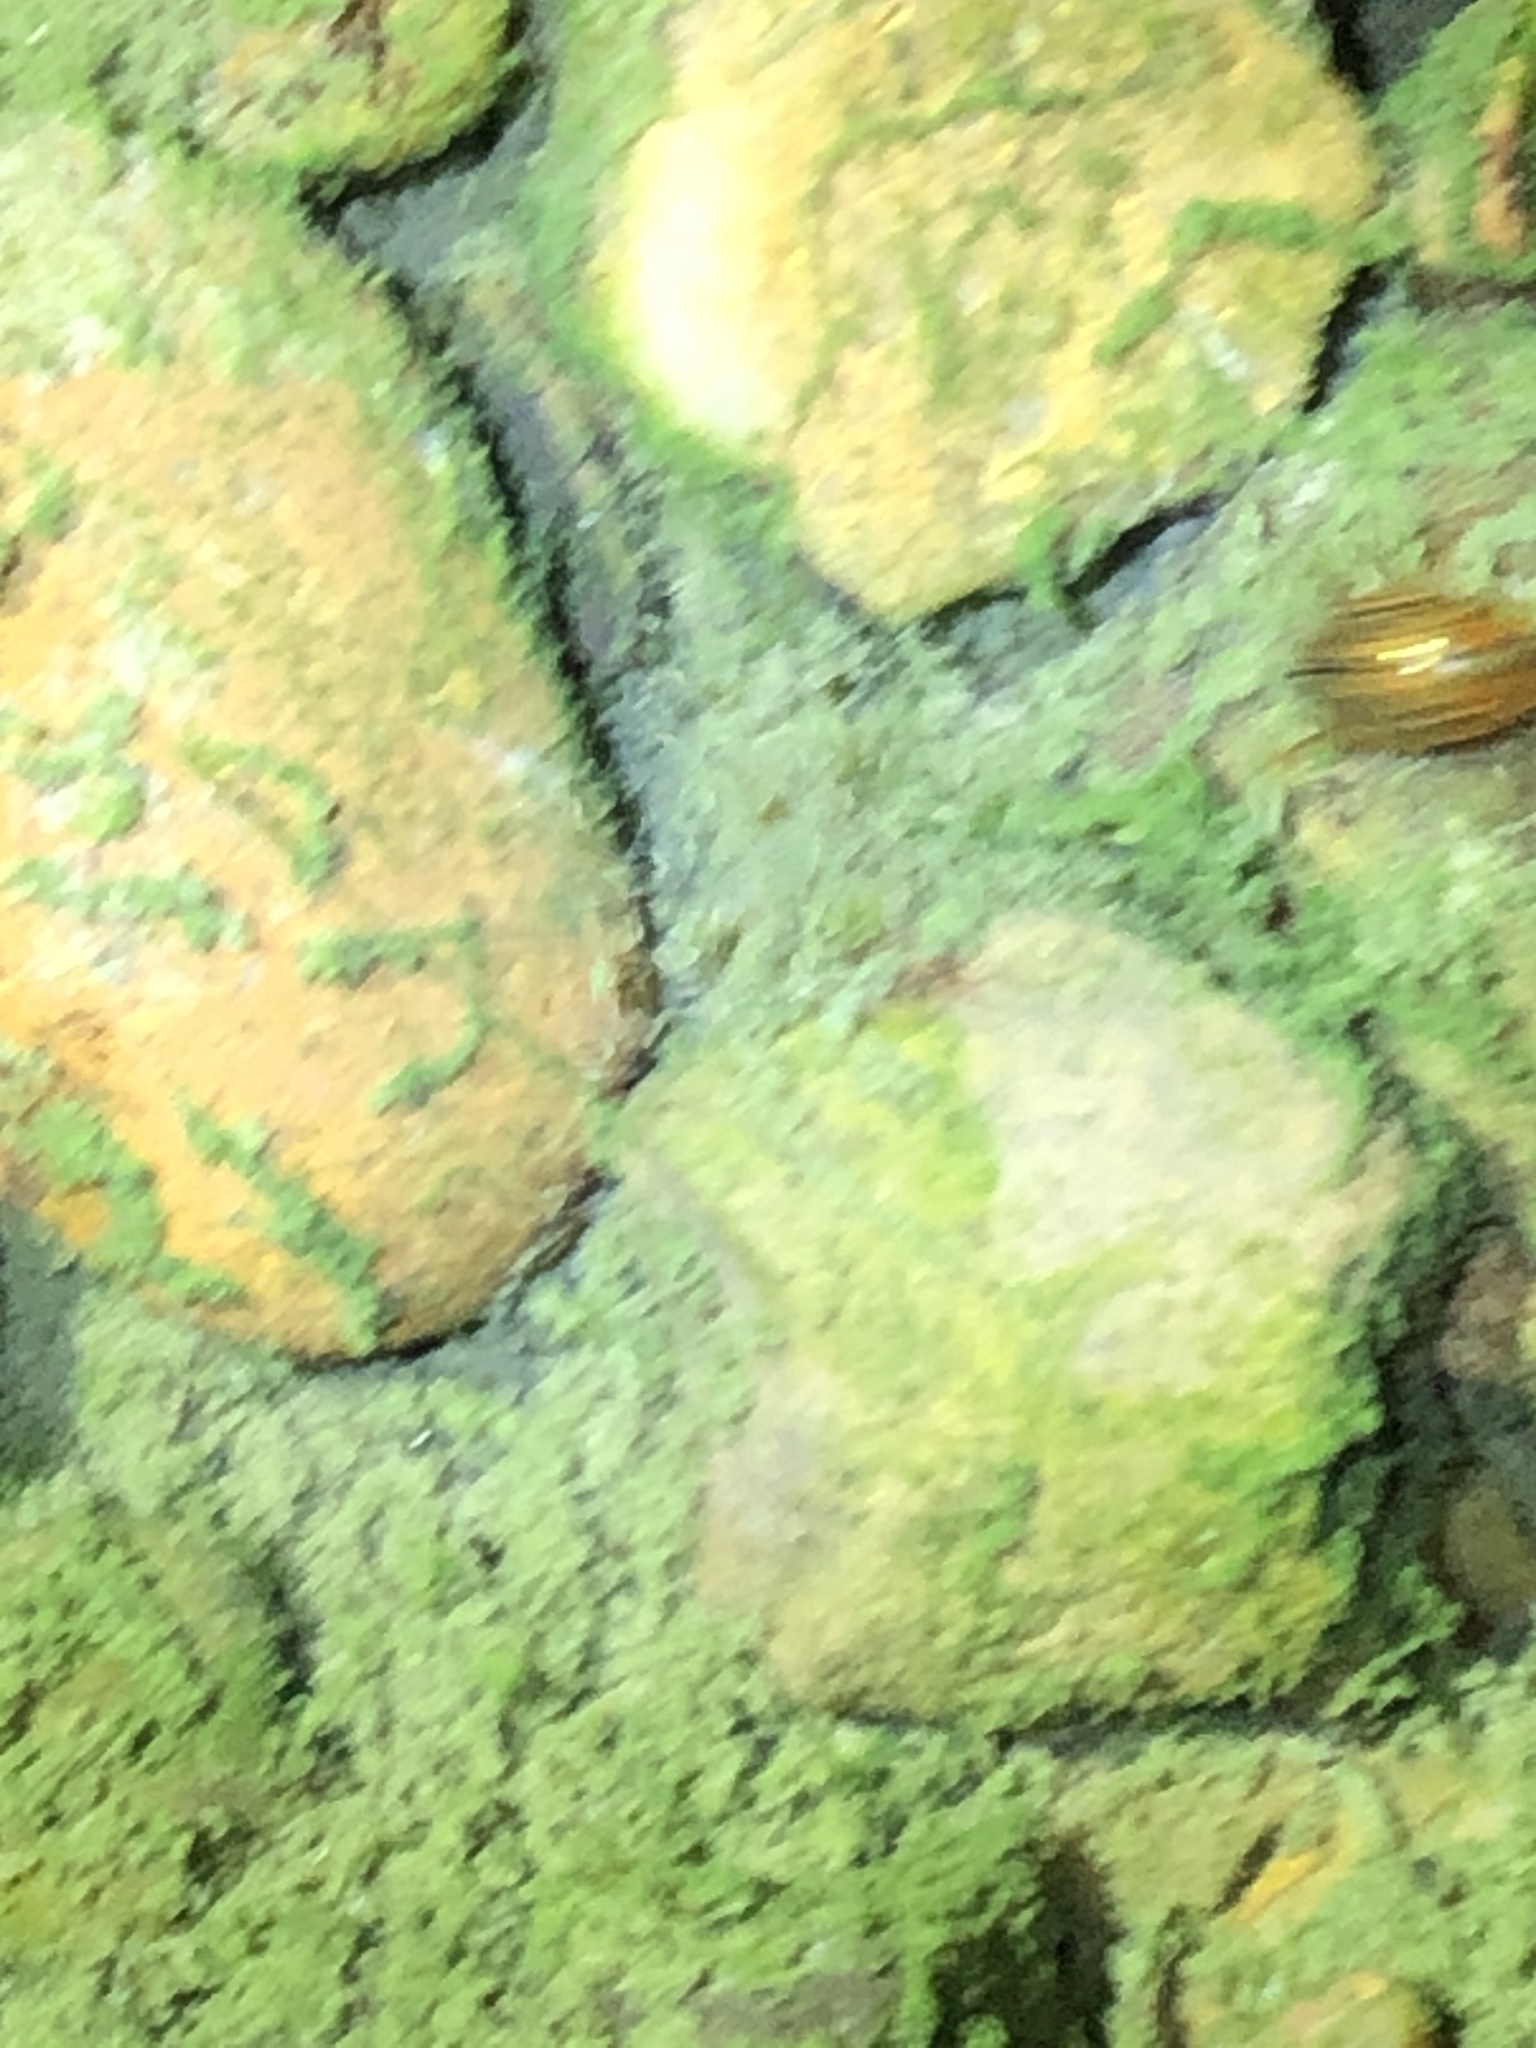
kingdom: Animalia
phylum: Arthropoda
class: Insecta
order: Coleoptera
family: Hydrophilidae
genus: Tropisternus
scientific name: Tropisternus collaris
